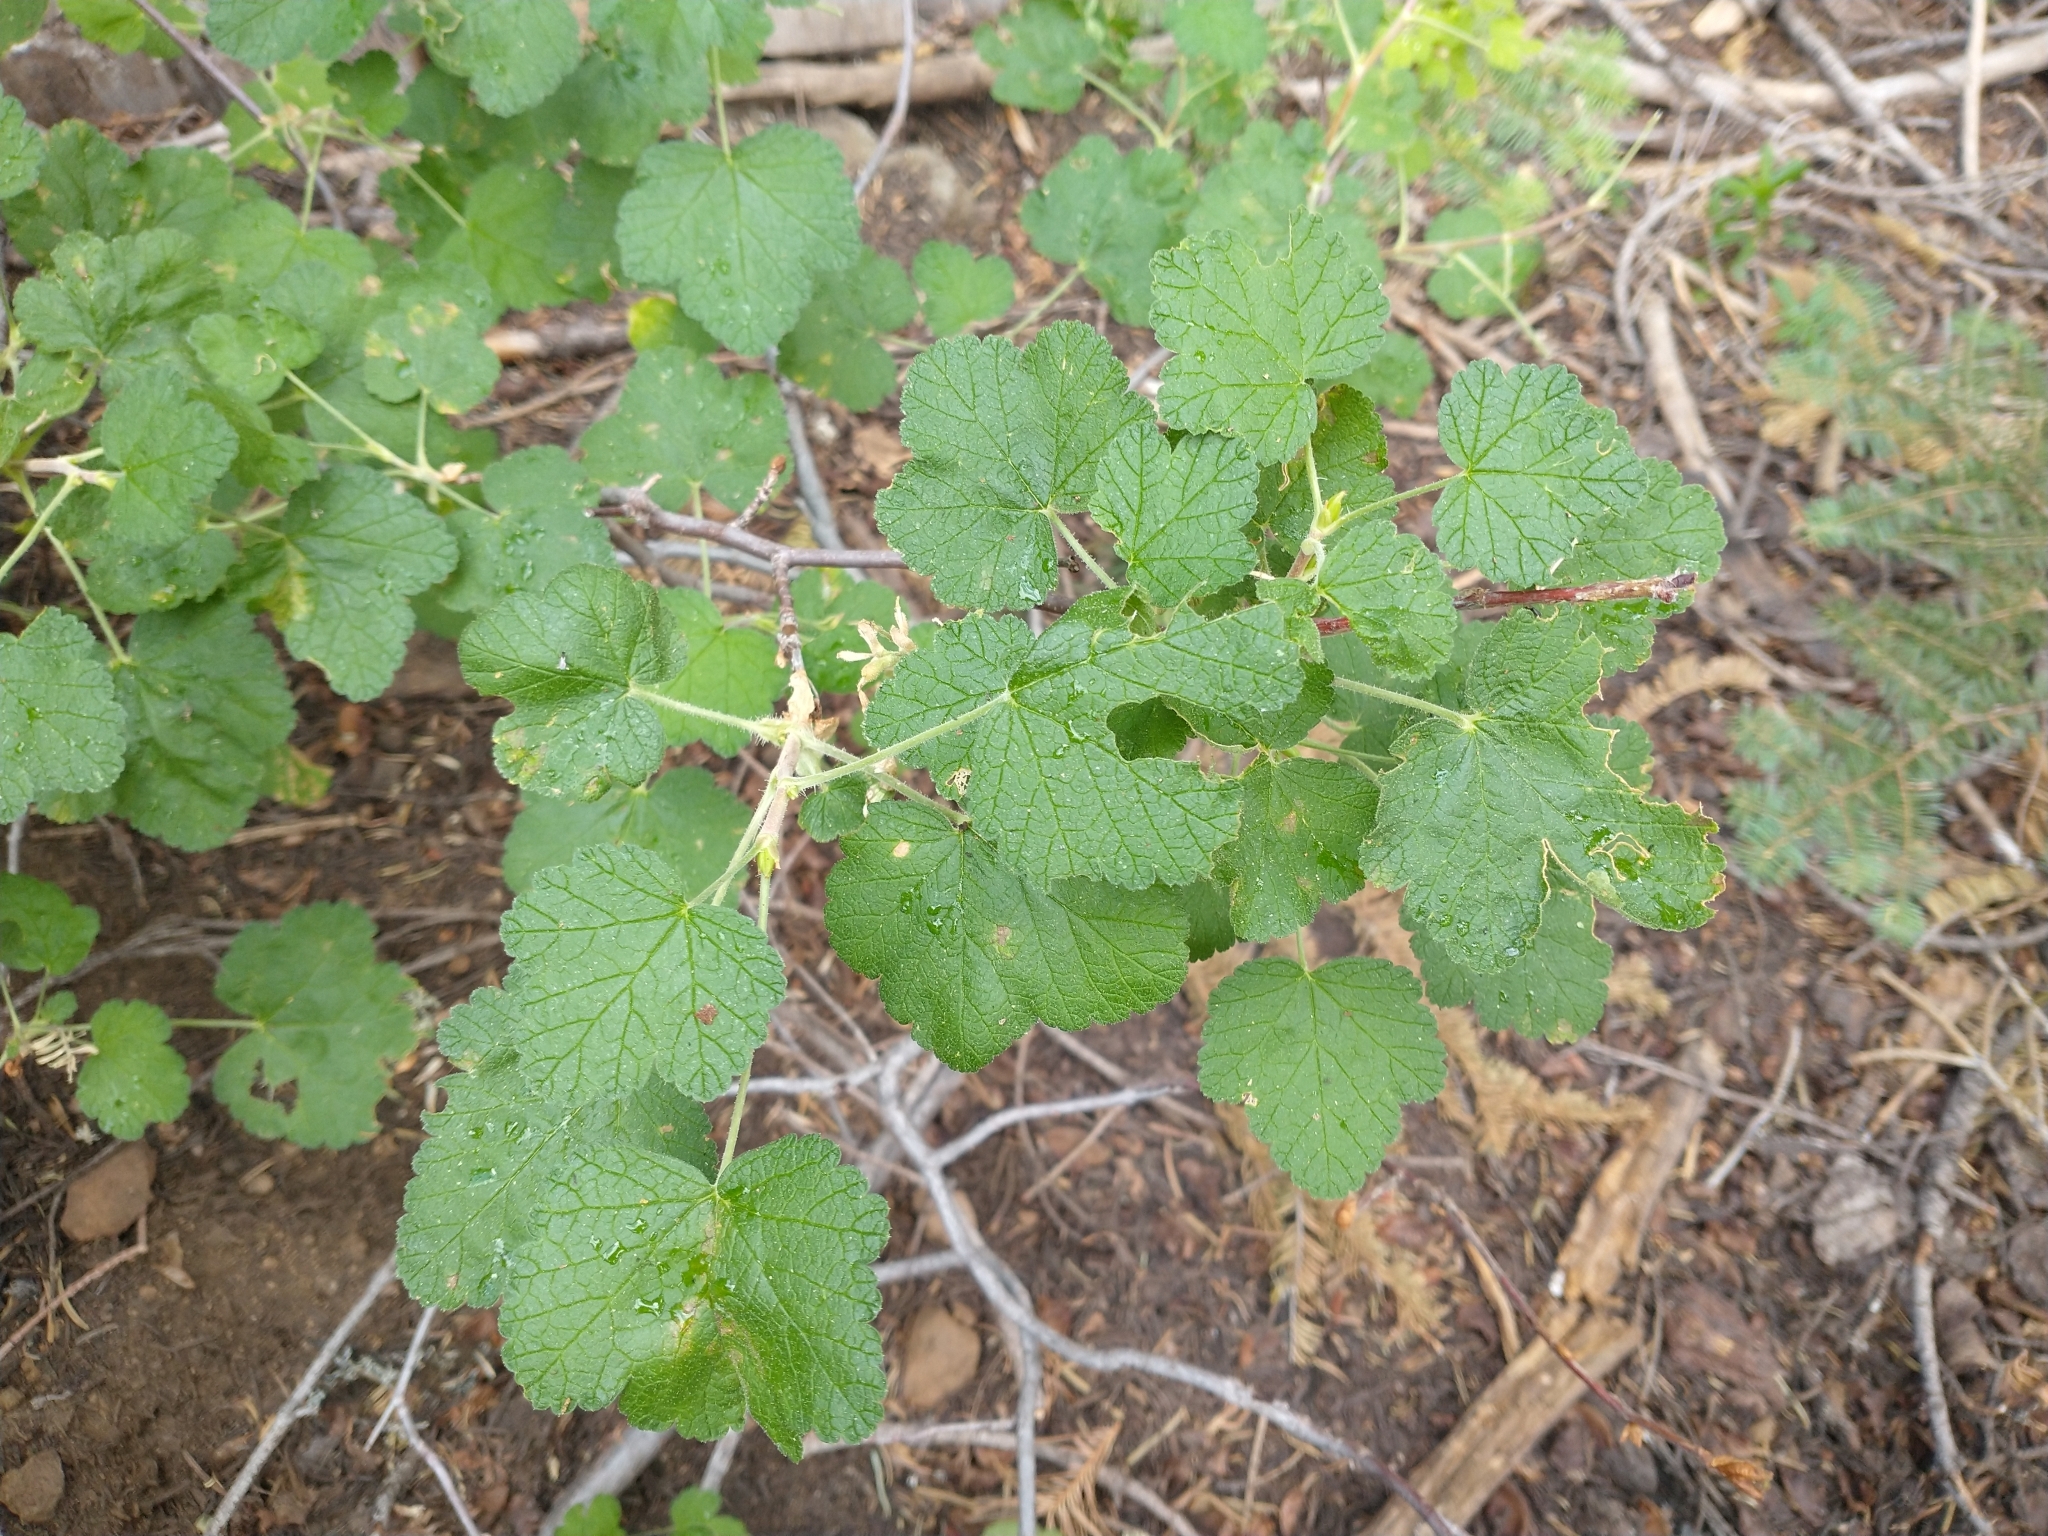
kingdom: Plantae
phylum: Tracheophyta
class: Magnoliopsida
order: Saxifragales
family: Grossulariaceae
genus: Ribes
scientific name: Ribes viscosissimum
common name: Sticky currant
